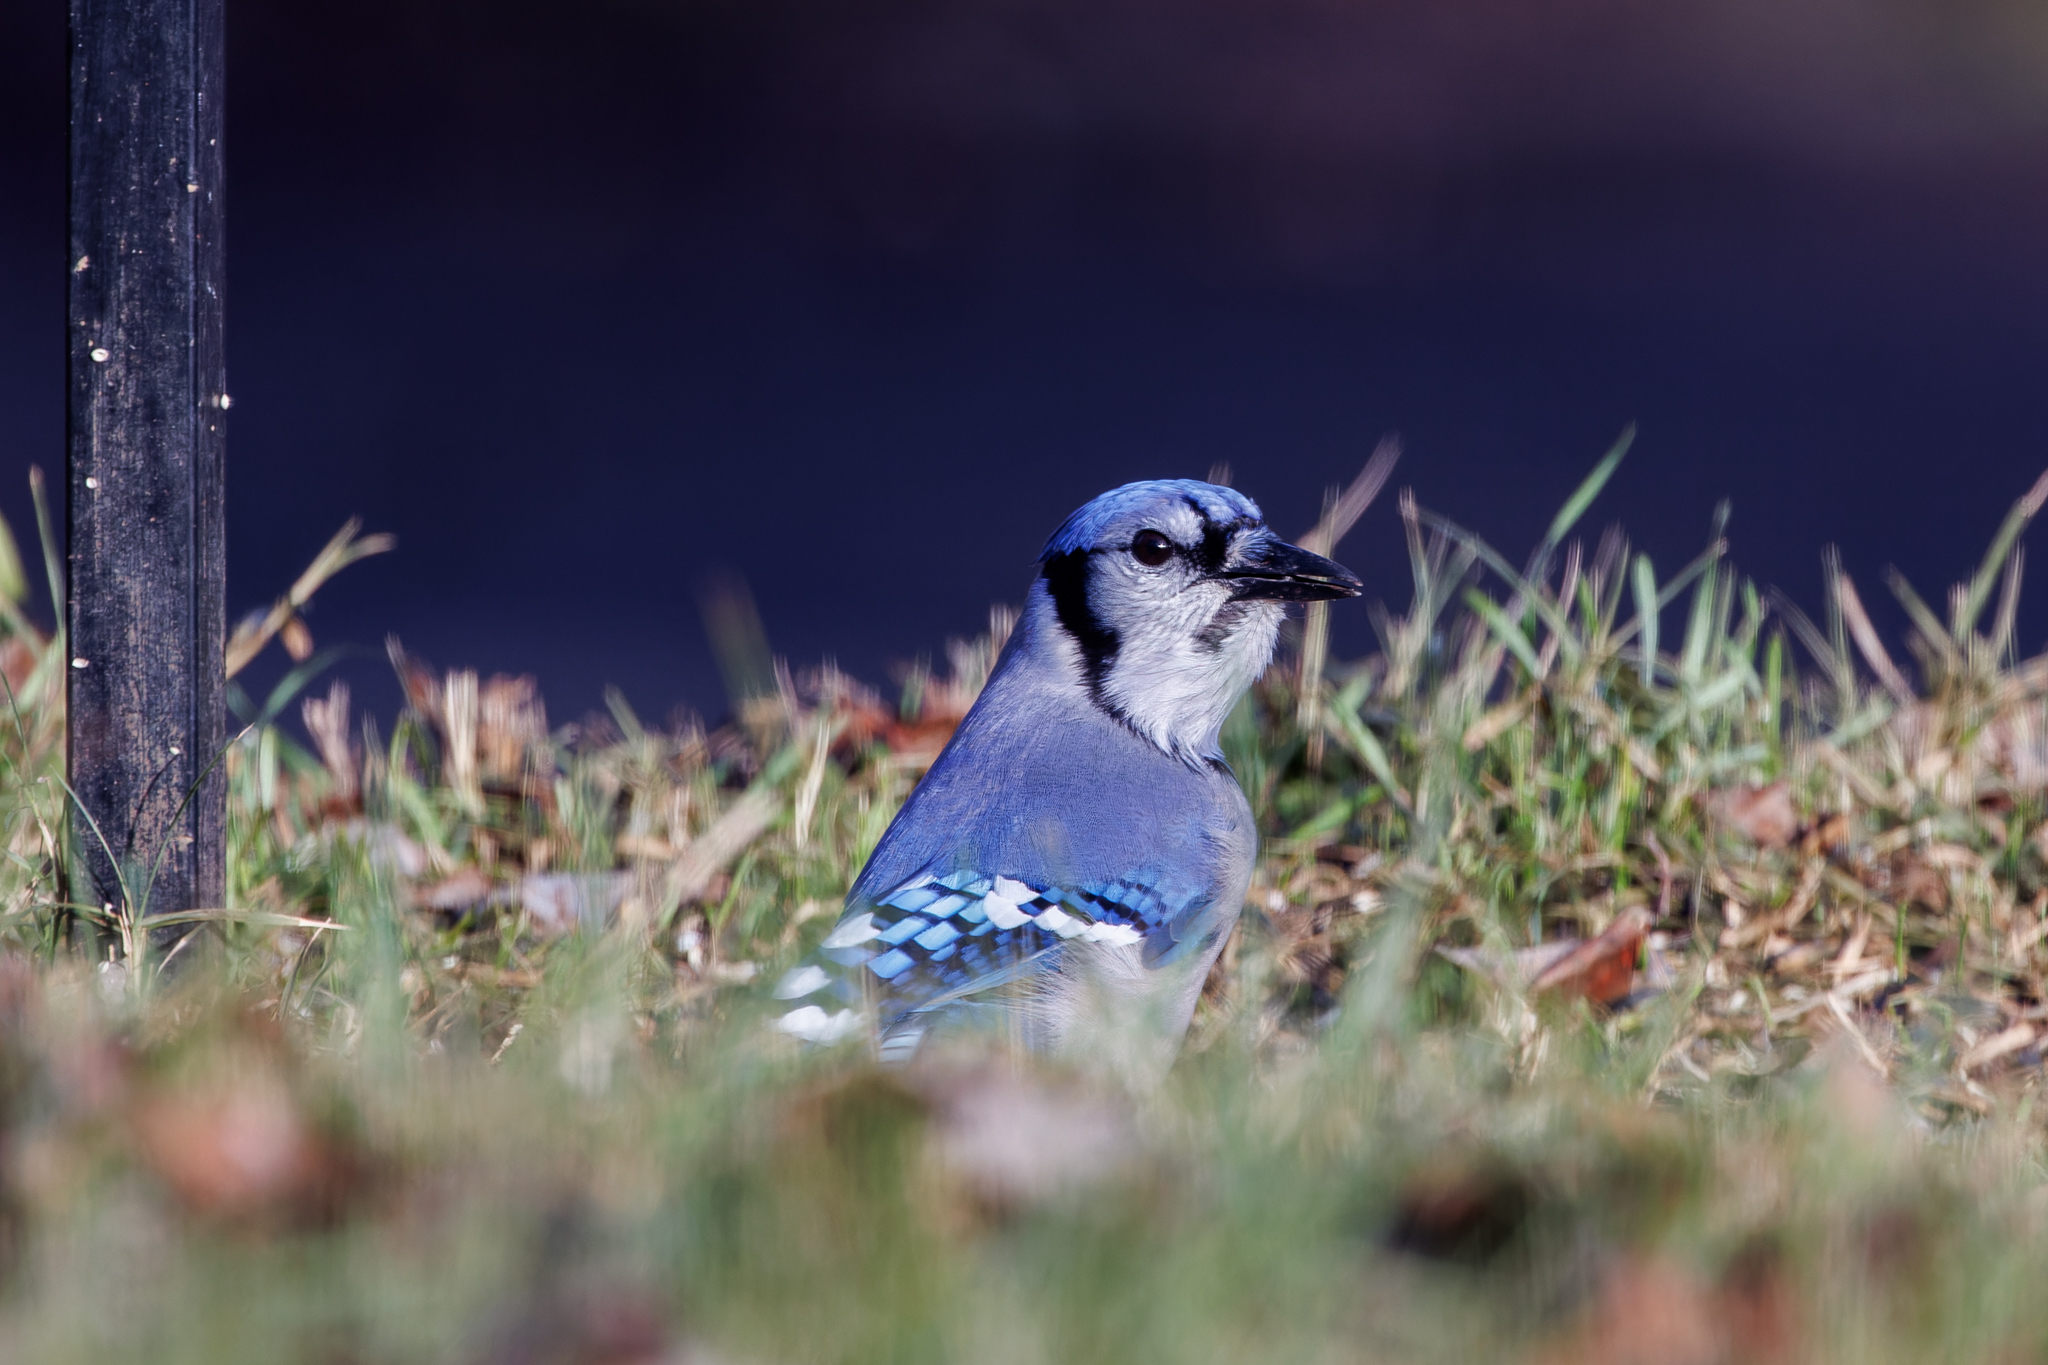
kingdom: Animalia
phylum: Chordata
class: Aves
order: Passeriformes
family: Corvidae
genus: Cyanocitta
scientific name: Cyanocitta cristata
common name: Blue jay
